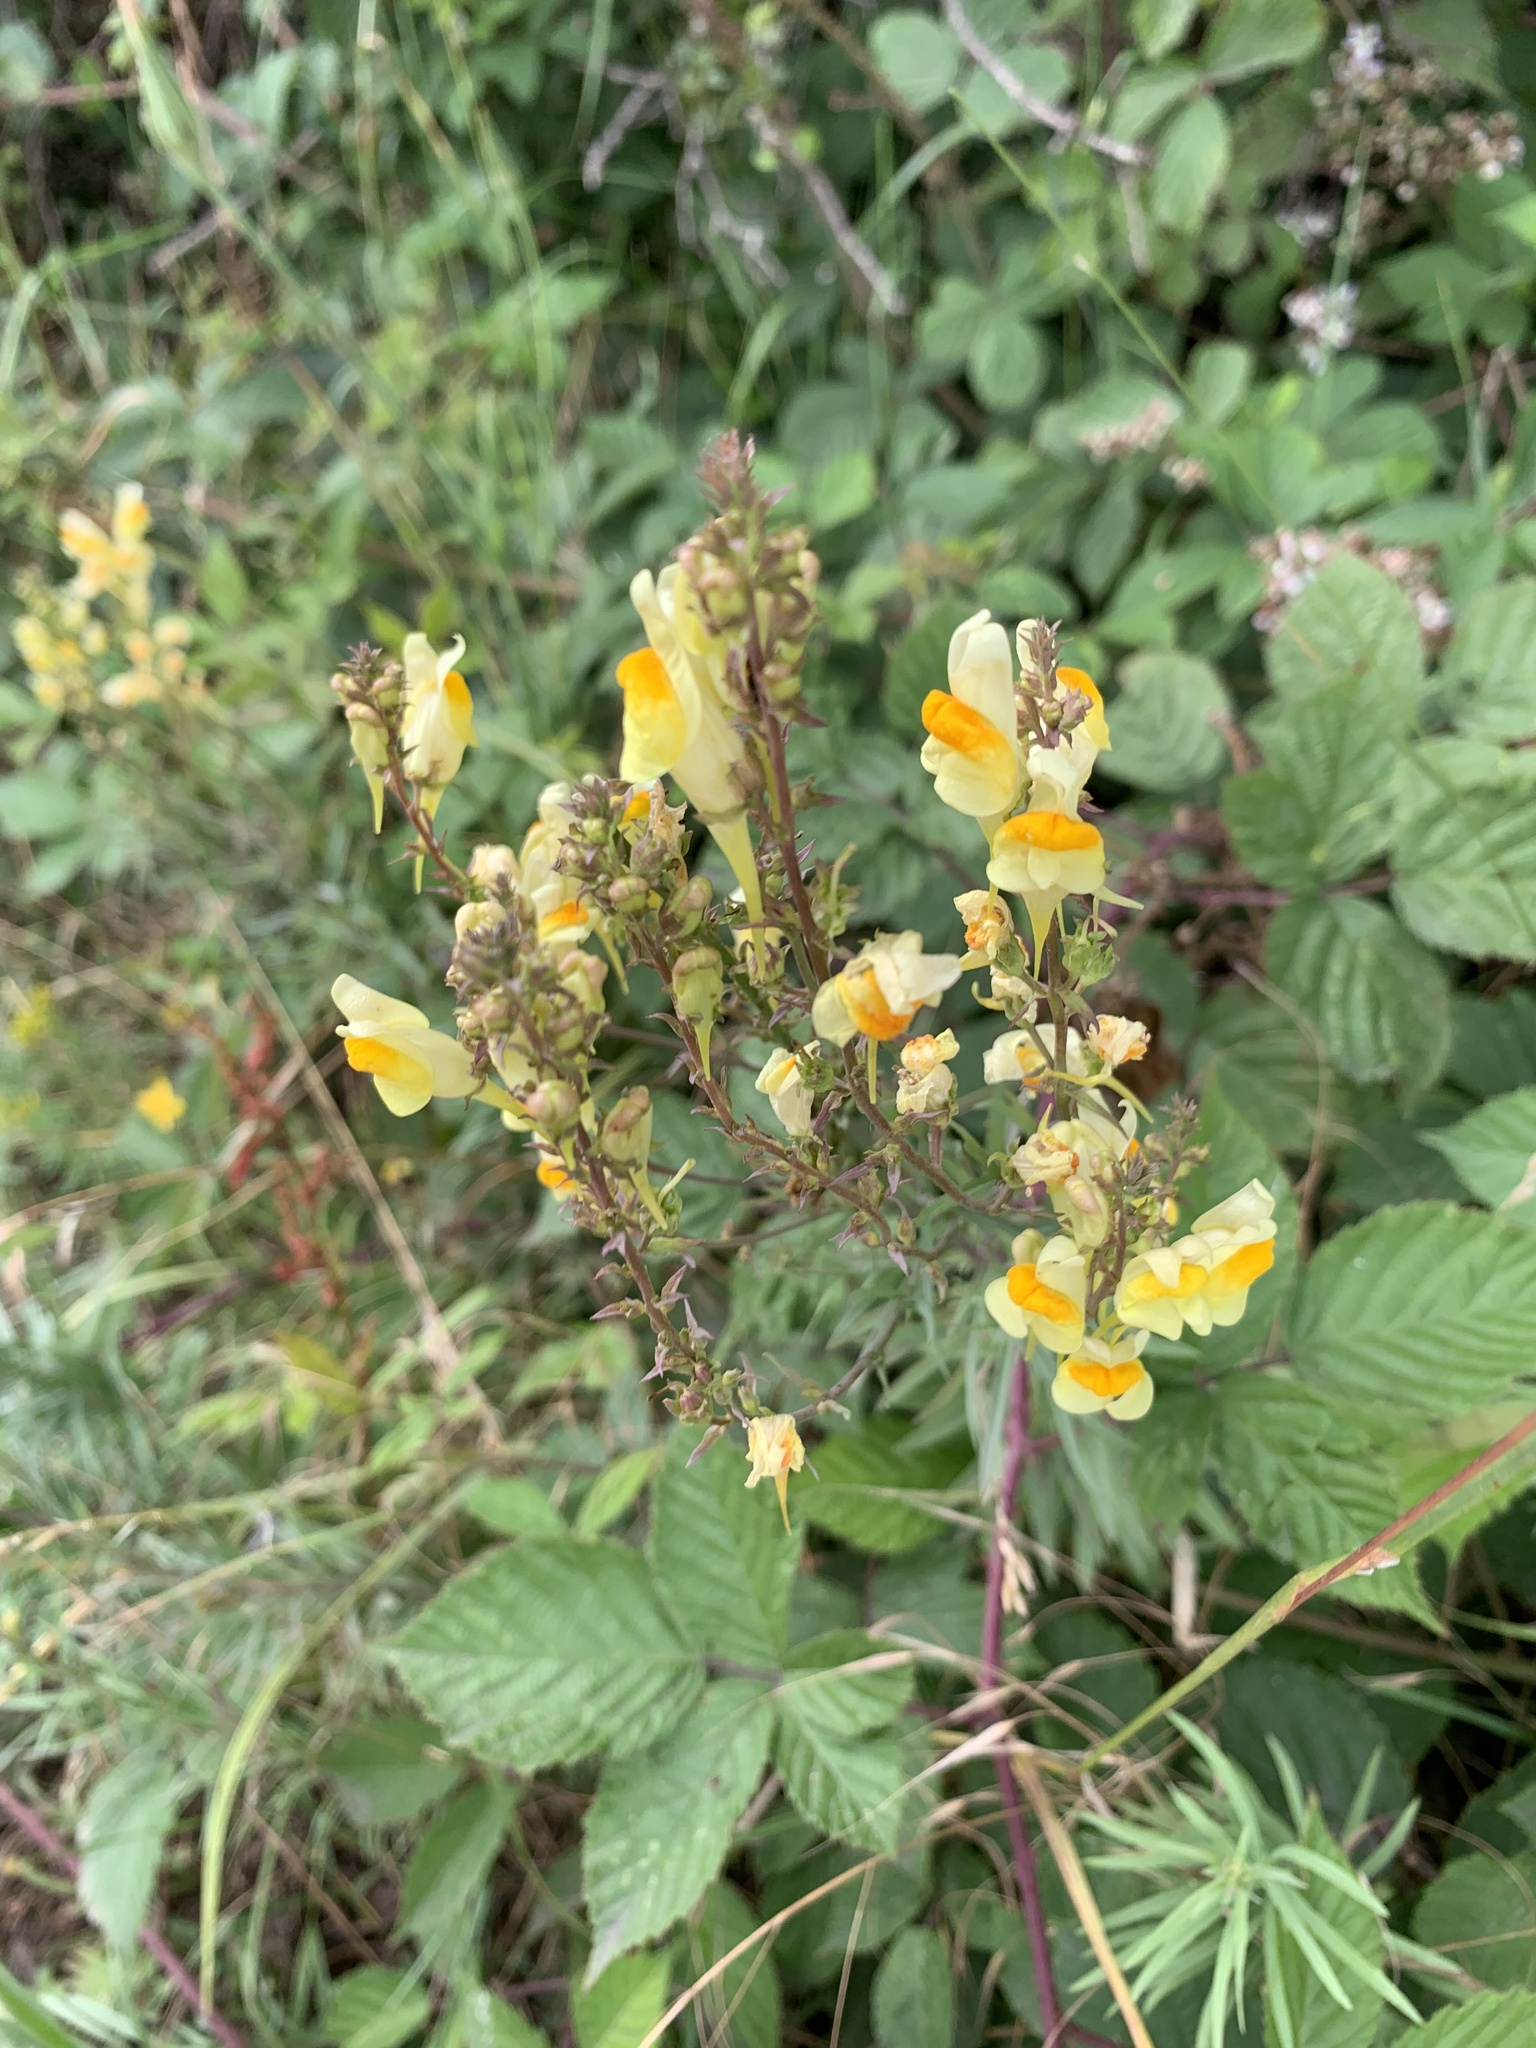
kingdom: Plantae
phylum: Tracheophyta
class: Magnoliopsida
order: Lamiales
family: Plantaginaceae
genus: Linaria
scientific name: Linaria vulgaris
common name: Butter and eggs
